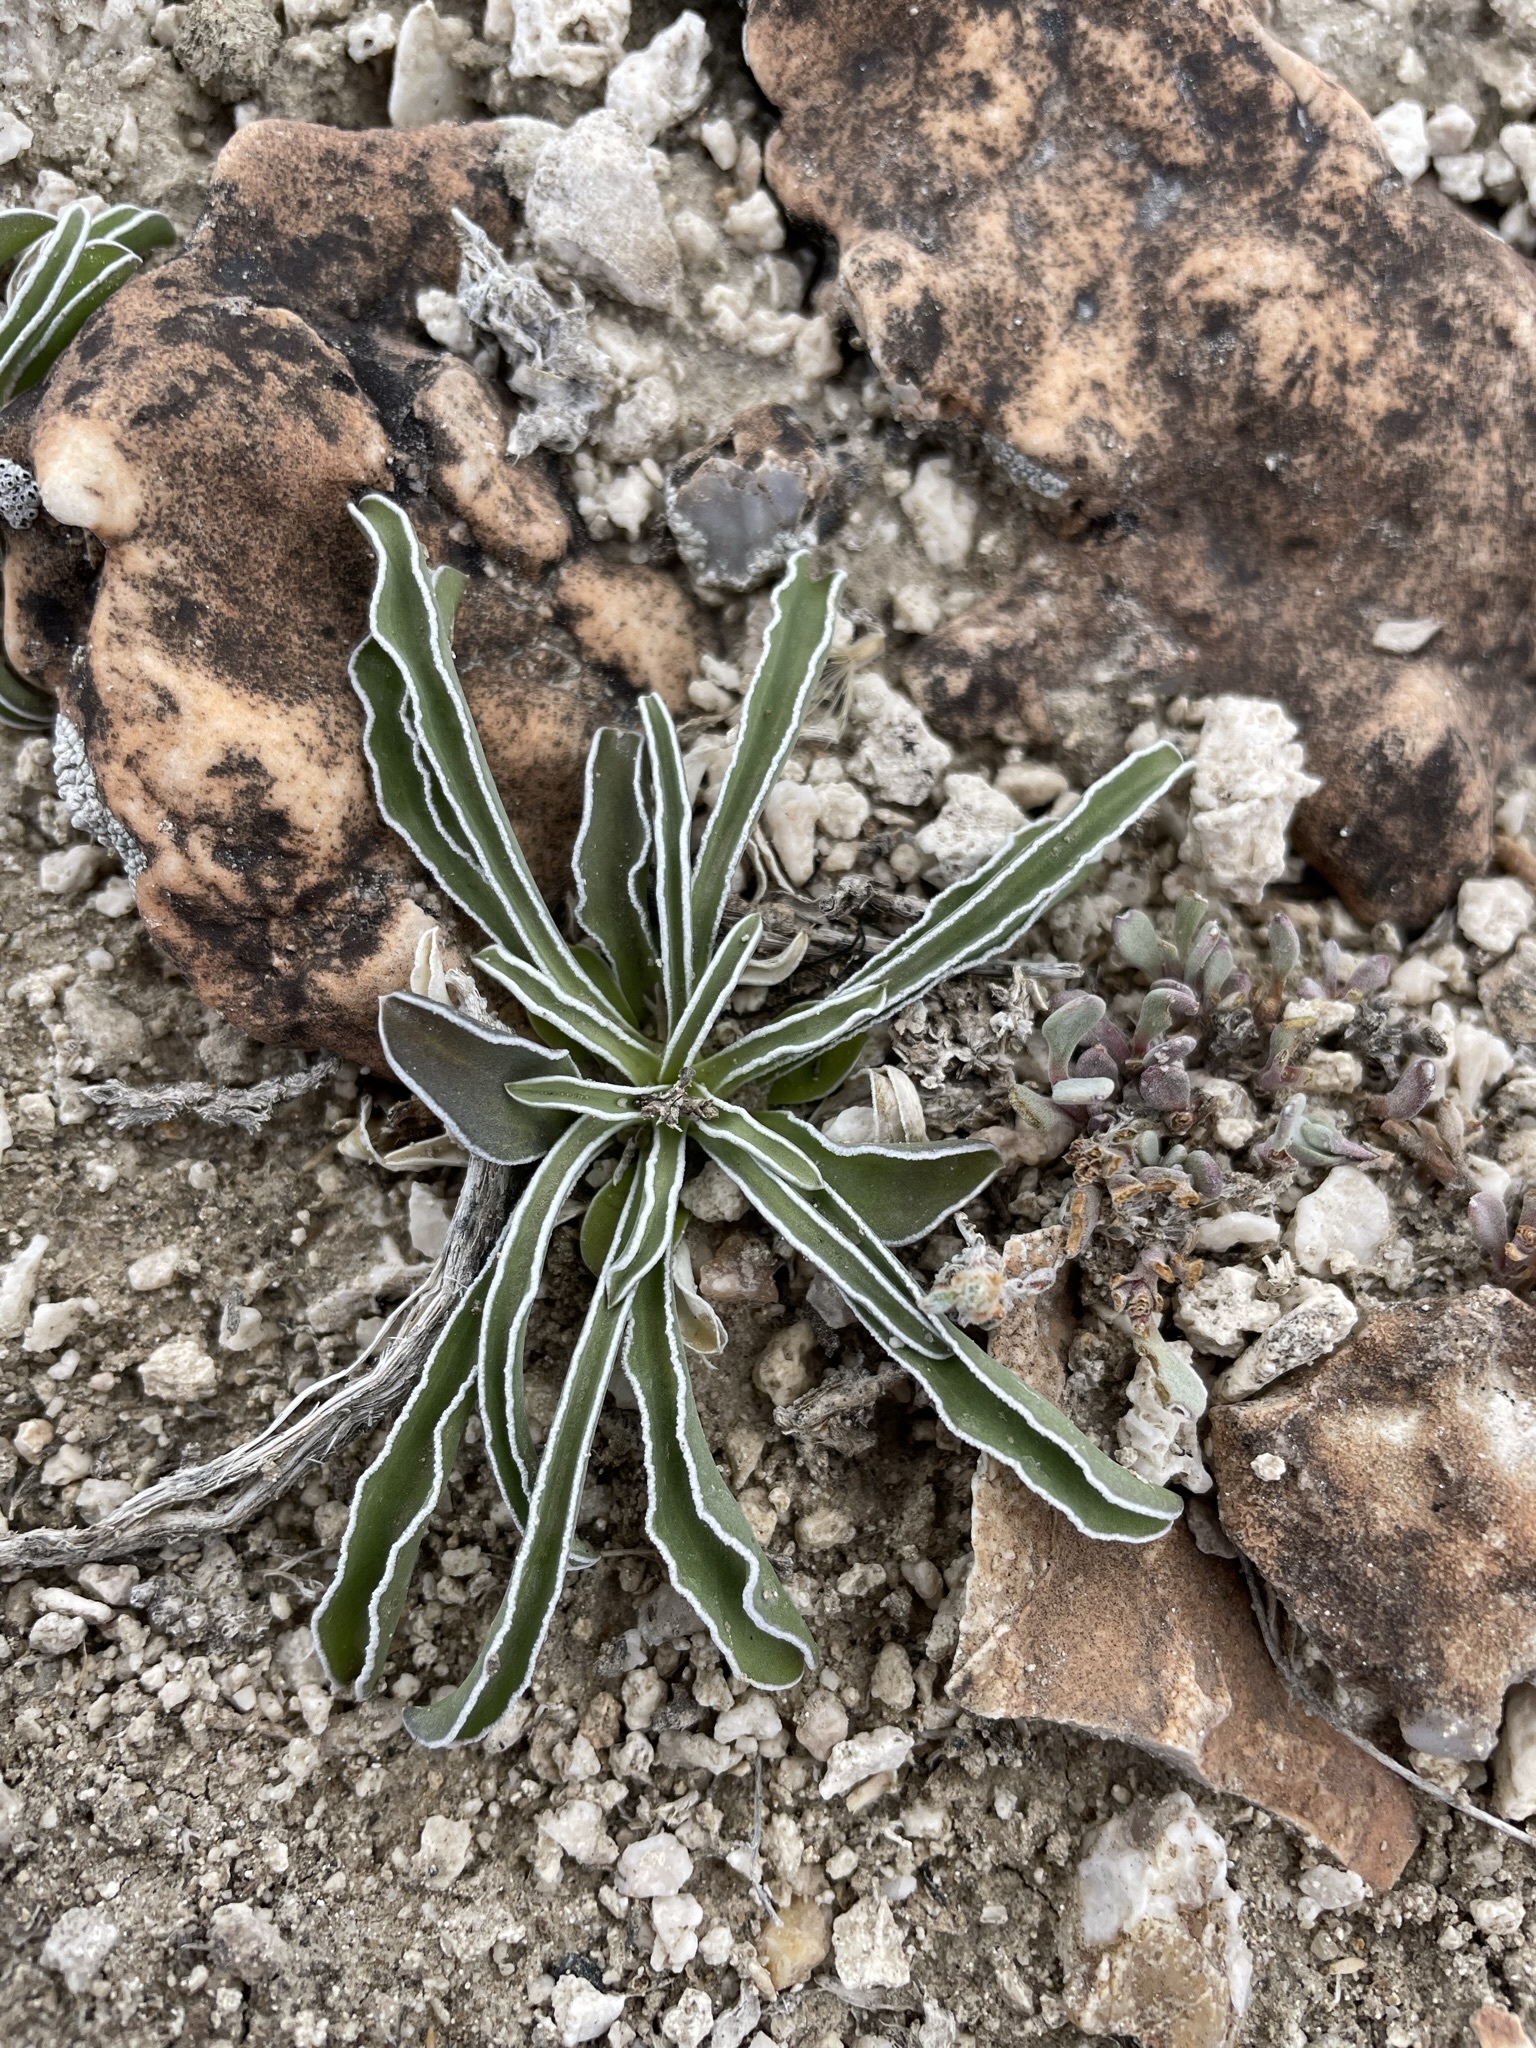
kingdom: Plantae
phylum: Tracheophyta
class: Magnoliopsida
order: Gentianales
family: Gentianaceae
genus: Frasera
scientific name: Frasera albomarginata
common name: Desert frasera
